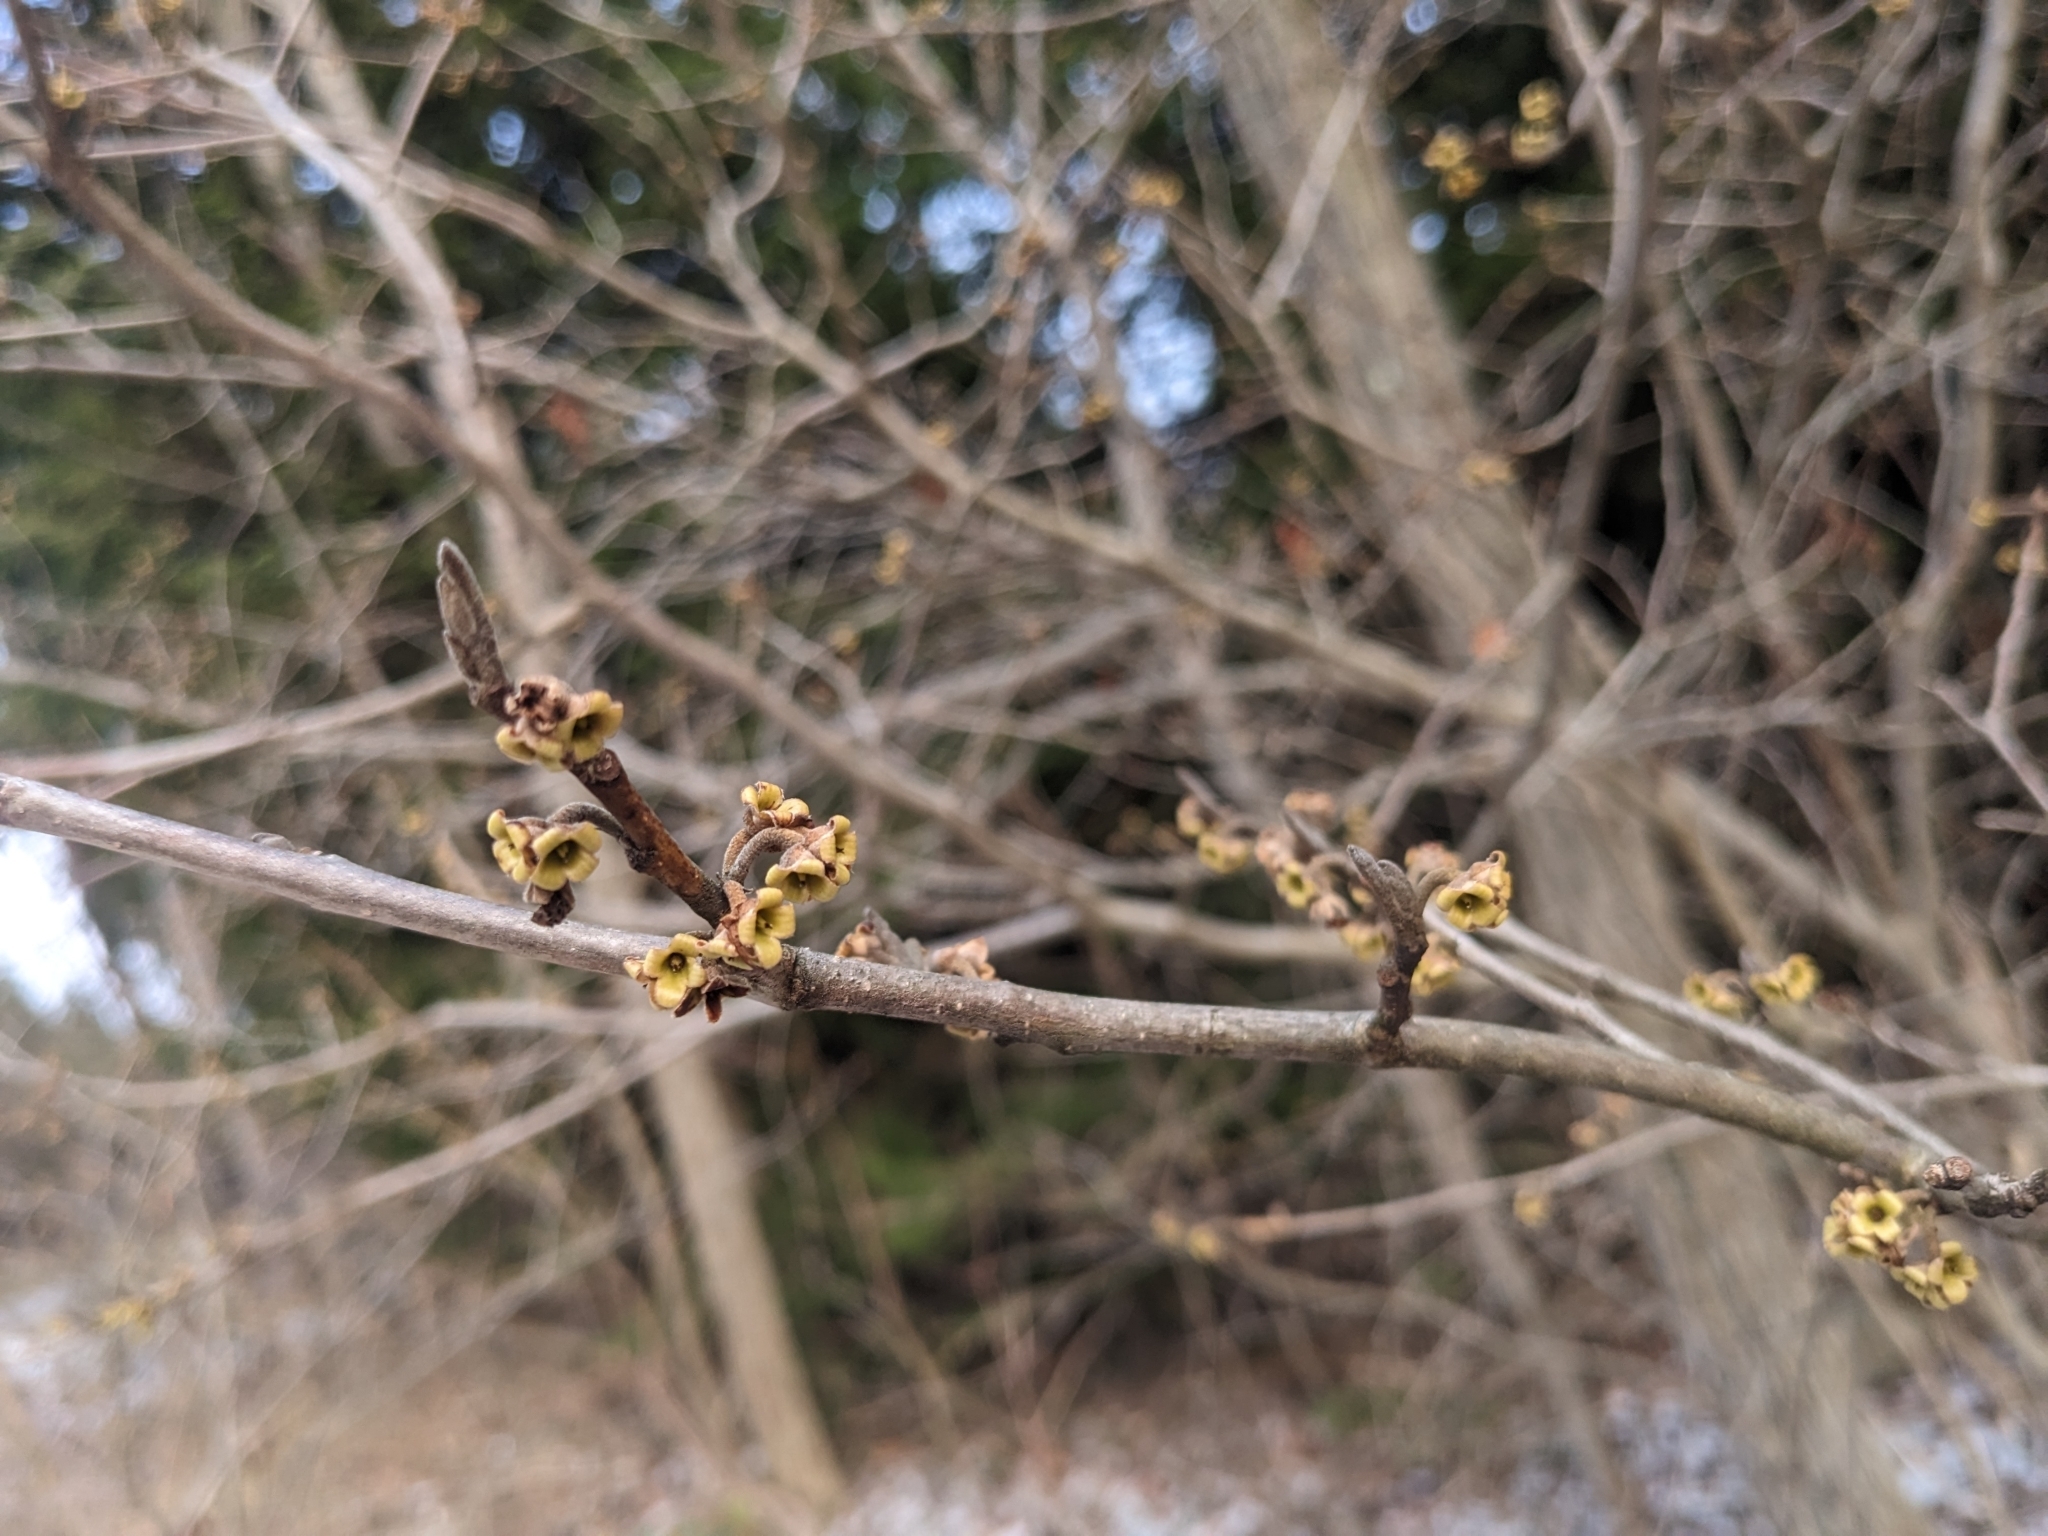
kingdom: Plantae
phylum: Tracheophyta
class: Magnoliopsida
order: Saxifragales
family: Hamamelidaceae
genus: Hamamelis
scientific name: Hamamelis virginiana
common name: Witch-hazel
